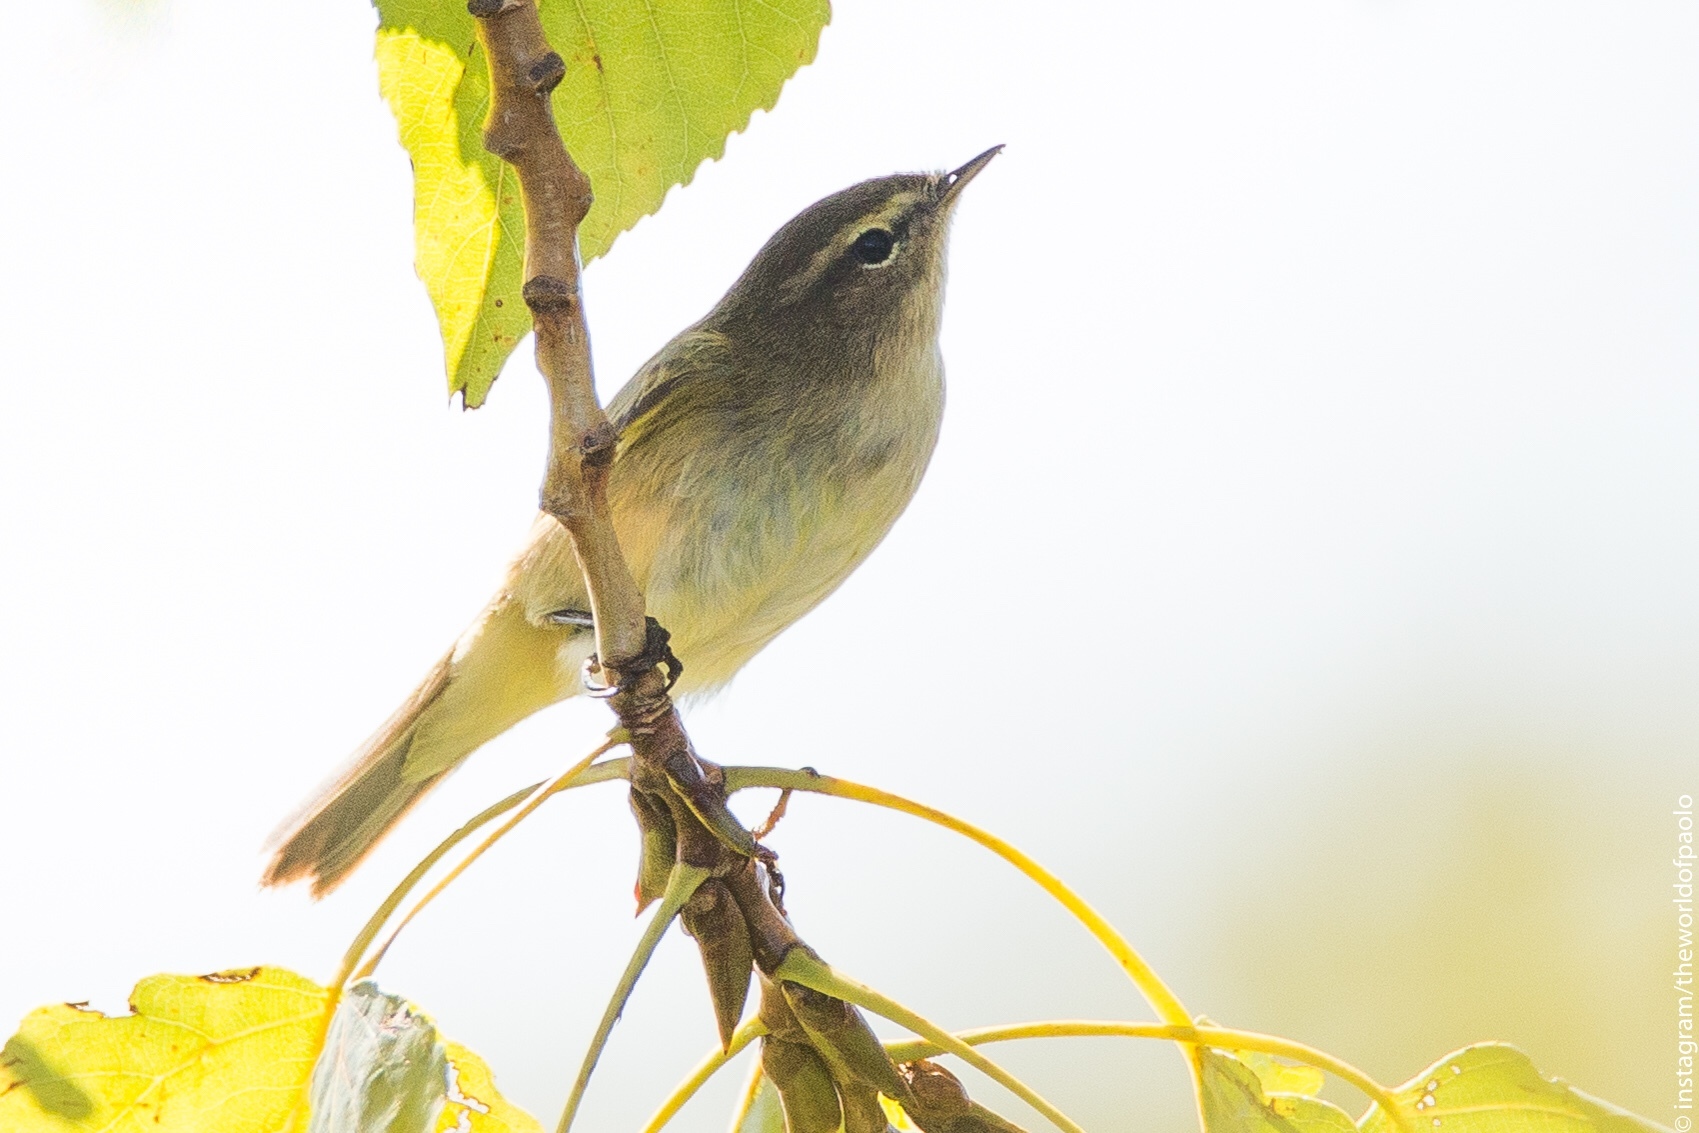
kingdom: Animalia
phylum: Chordata
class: Aves
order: Passeriformes
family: Phylloscopidae
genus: Phylloscopus
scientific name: Phylloscopus collybita
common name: Common chiffchaff
